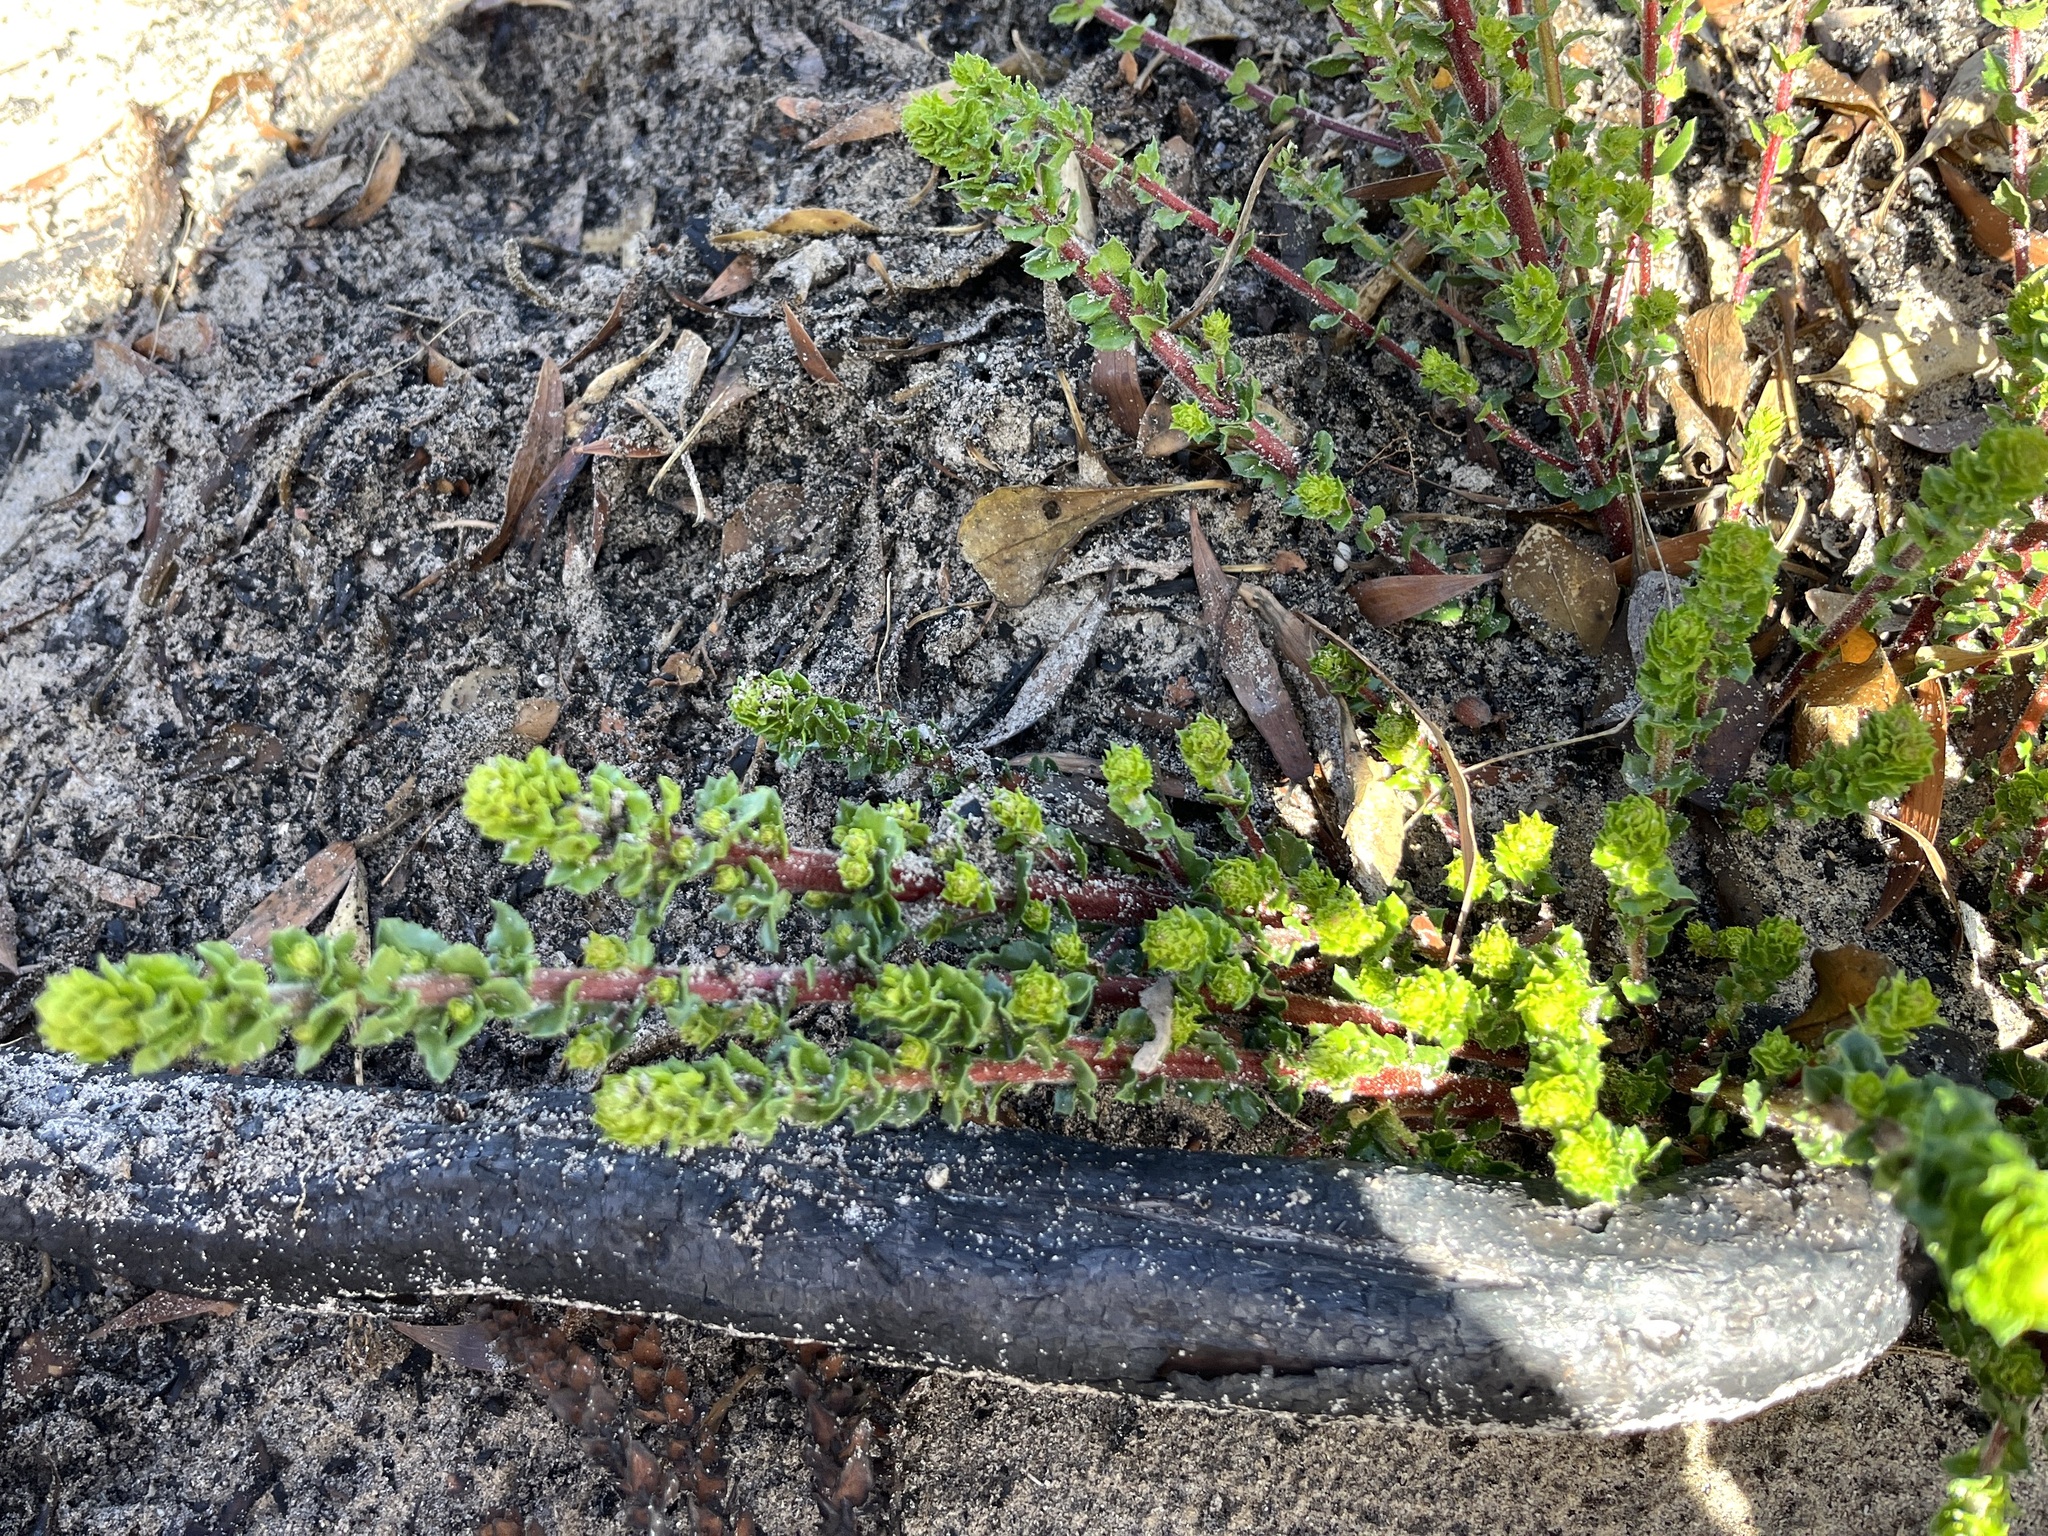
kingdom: Plantae
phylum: Tracheophyta
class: Magnoliopsida
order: Fagales
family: Myricaceae
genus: Morella
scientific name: Morella cordifolia
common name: Waxberry
